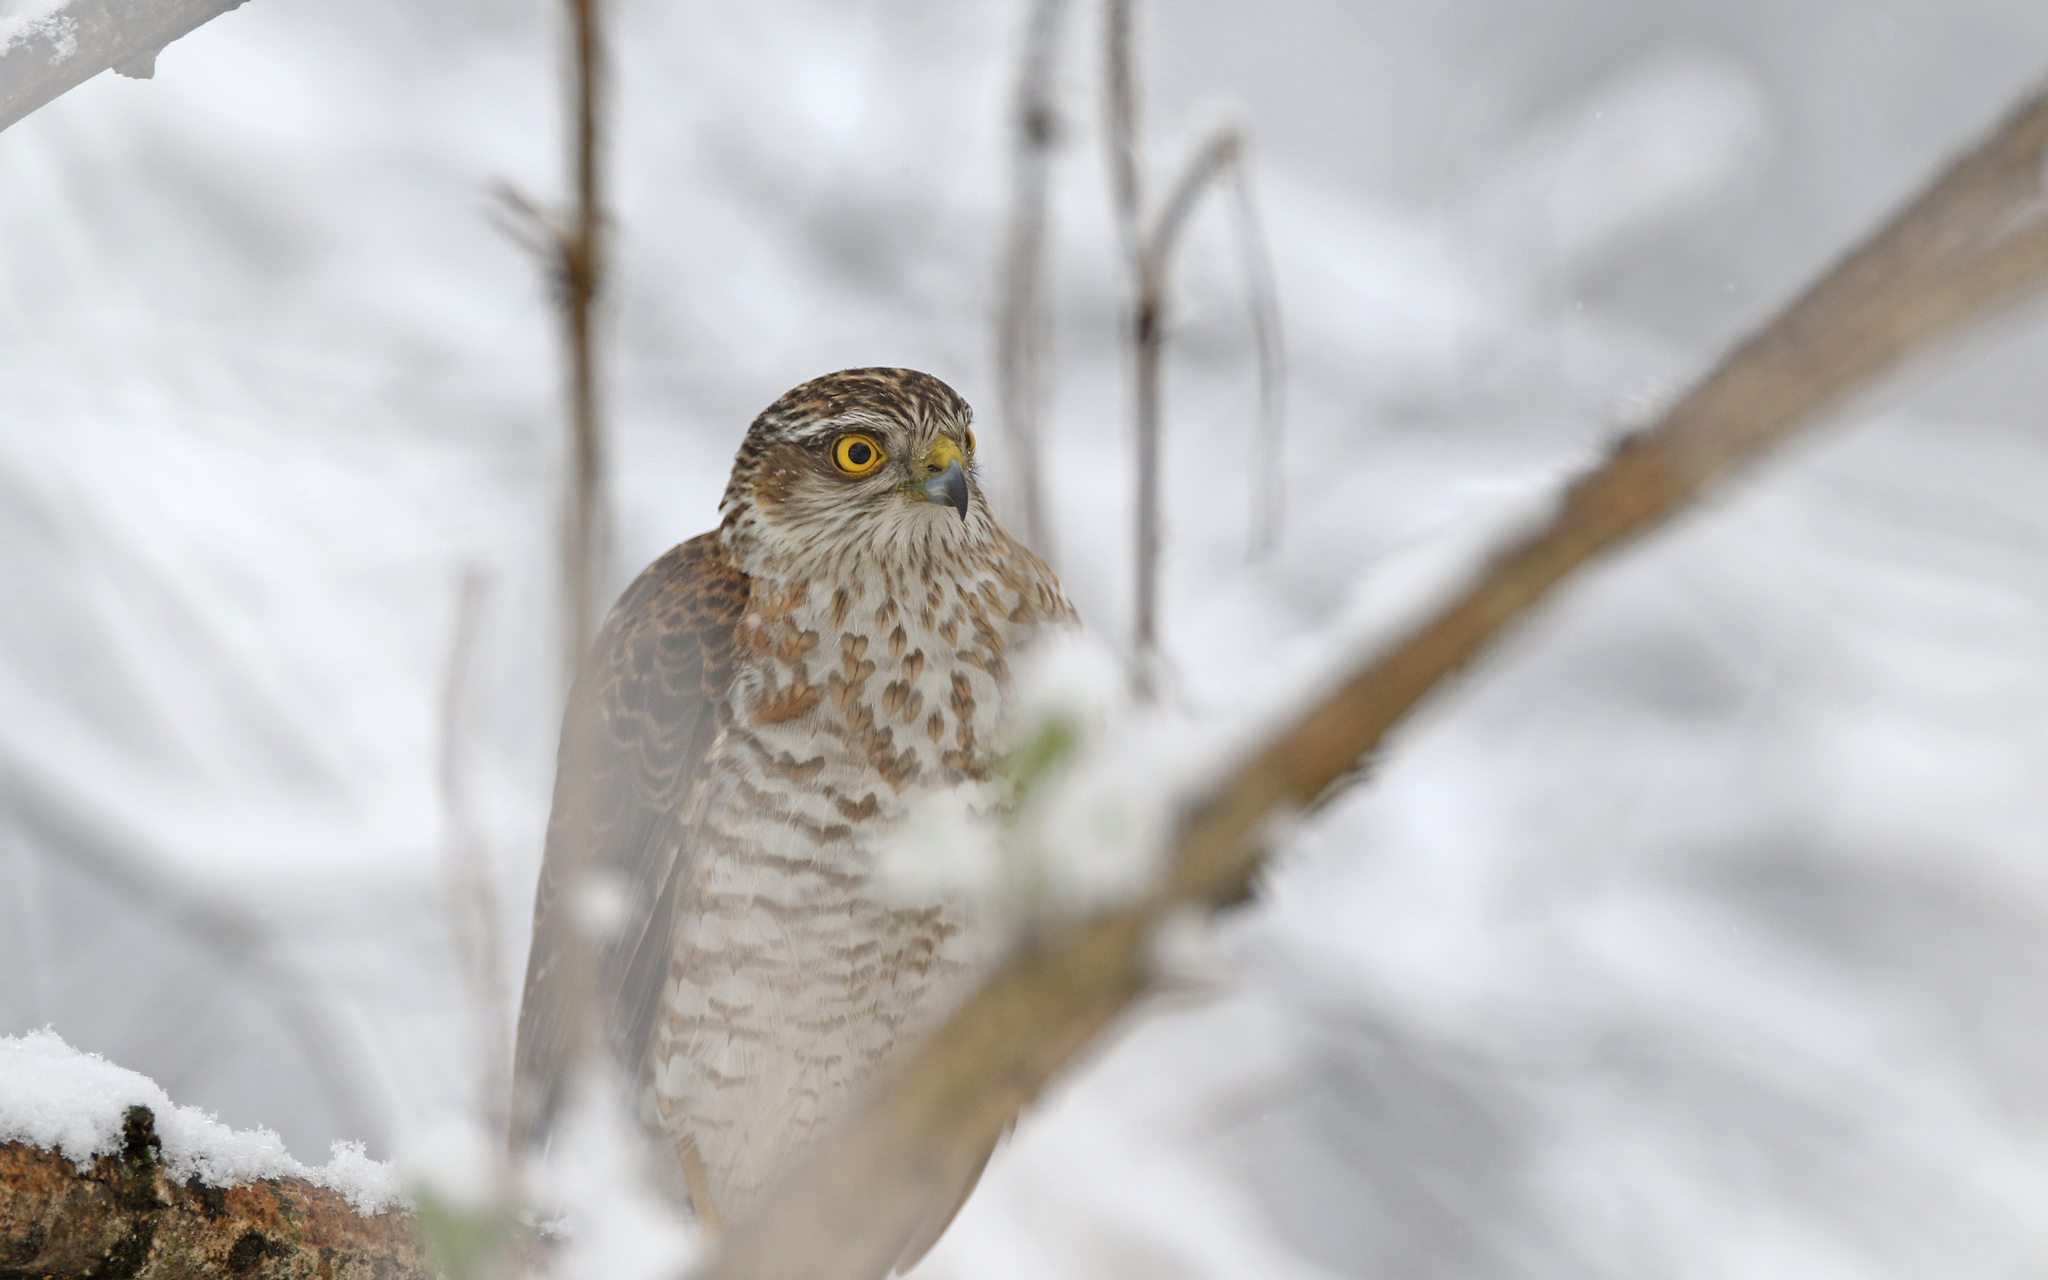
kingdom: Animalia
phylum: Chordata
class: Aves
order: Accipitriformes
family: Accipitridae
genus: Accipiter
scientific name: Accipiter nisus
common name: Eurasian sparrowhawk
